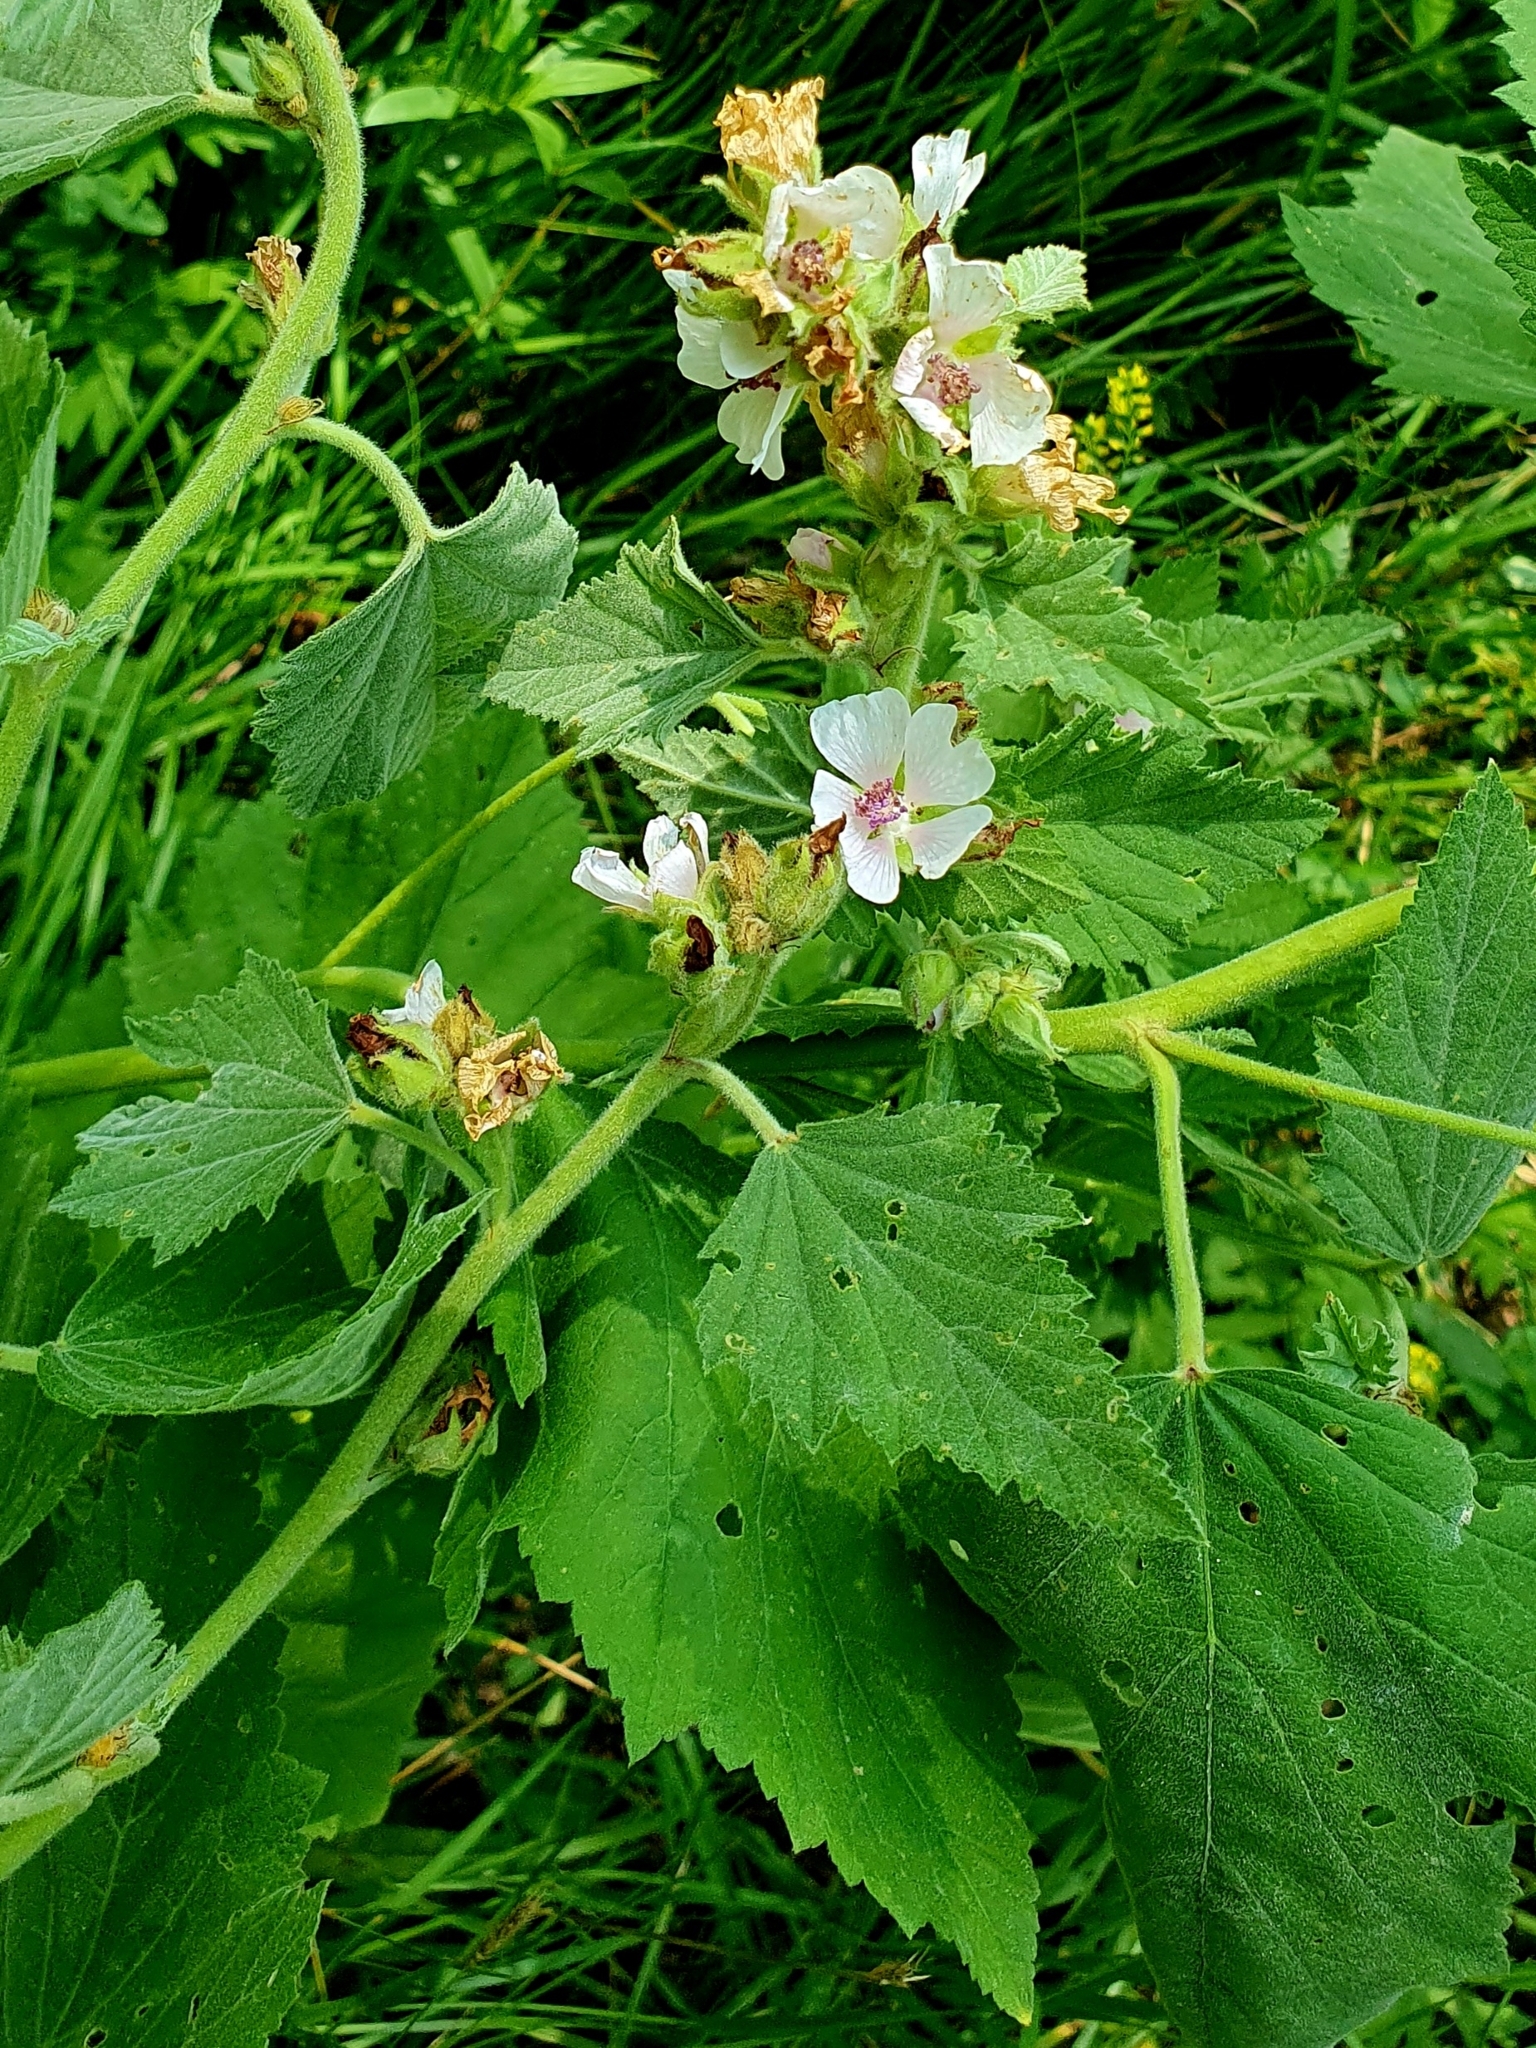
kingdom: Plantae
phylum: Tracheophyta
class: Magnoliopsida
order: Malvales
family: Malvaceae
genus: Althaea
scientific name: Althaea officinalis
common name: Marsh-mallow
